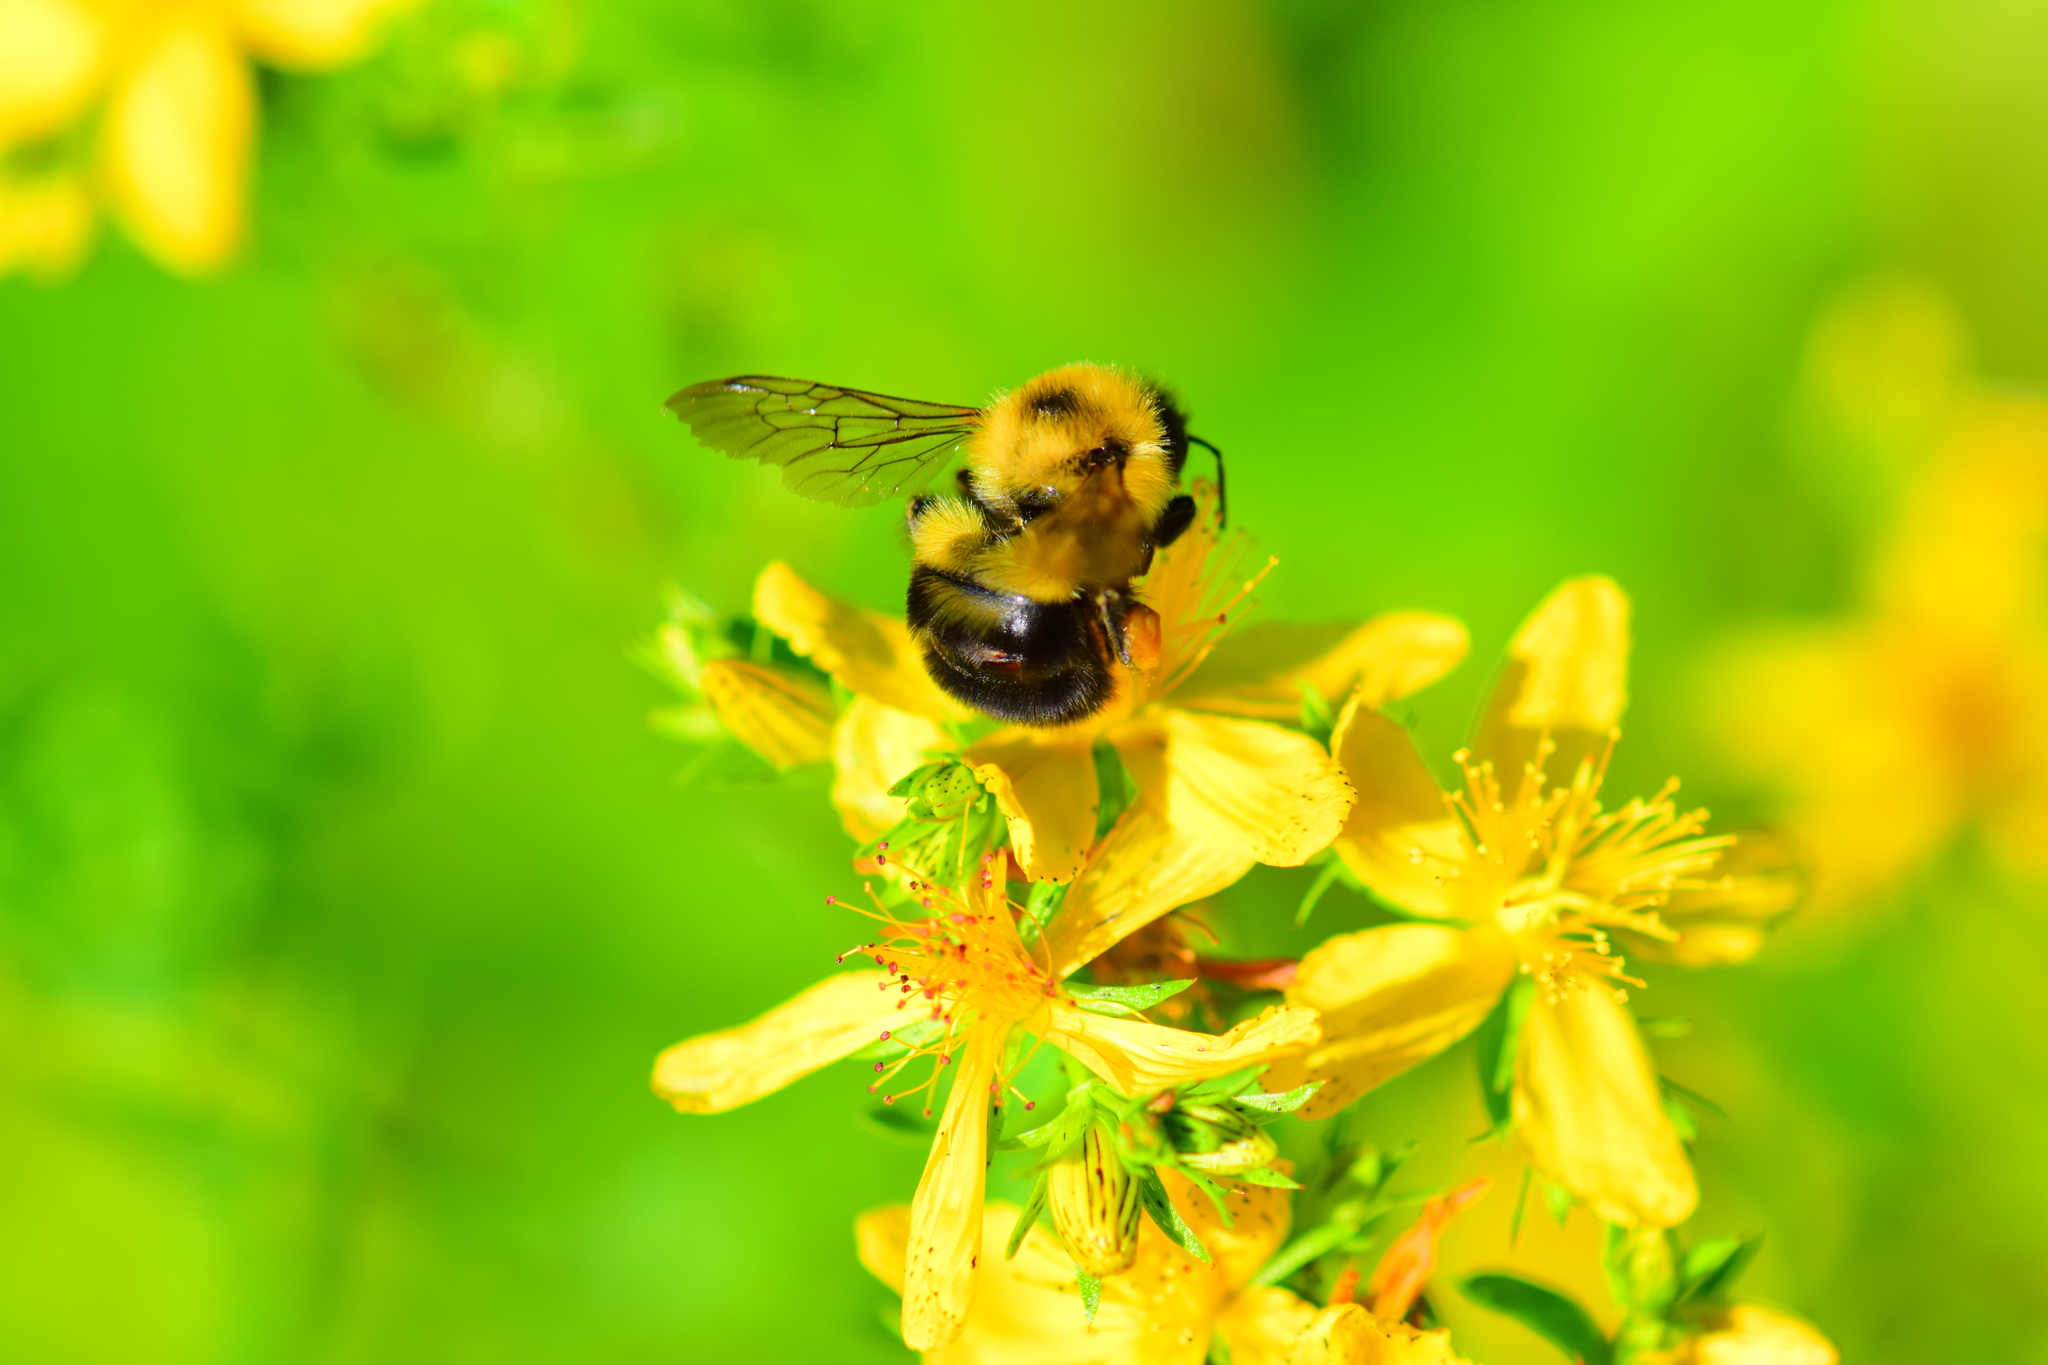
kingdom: Animalia
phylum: Arthropoda
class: Insecta
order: Hymenoptera
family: Apidae
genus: Bombus
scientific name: Bombus bimaculatus
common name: Two-spotted bumble bee
